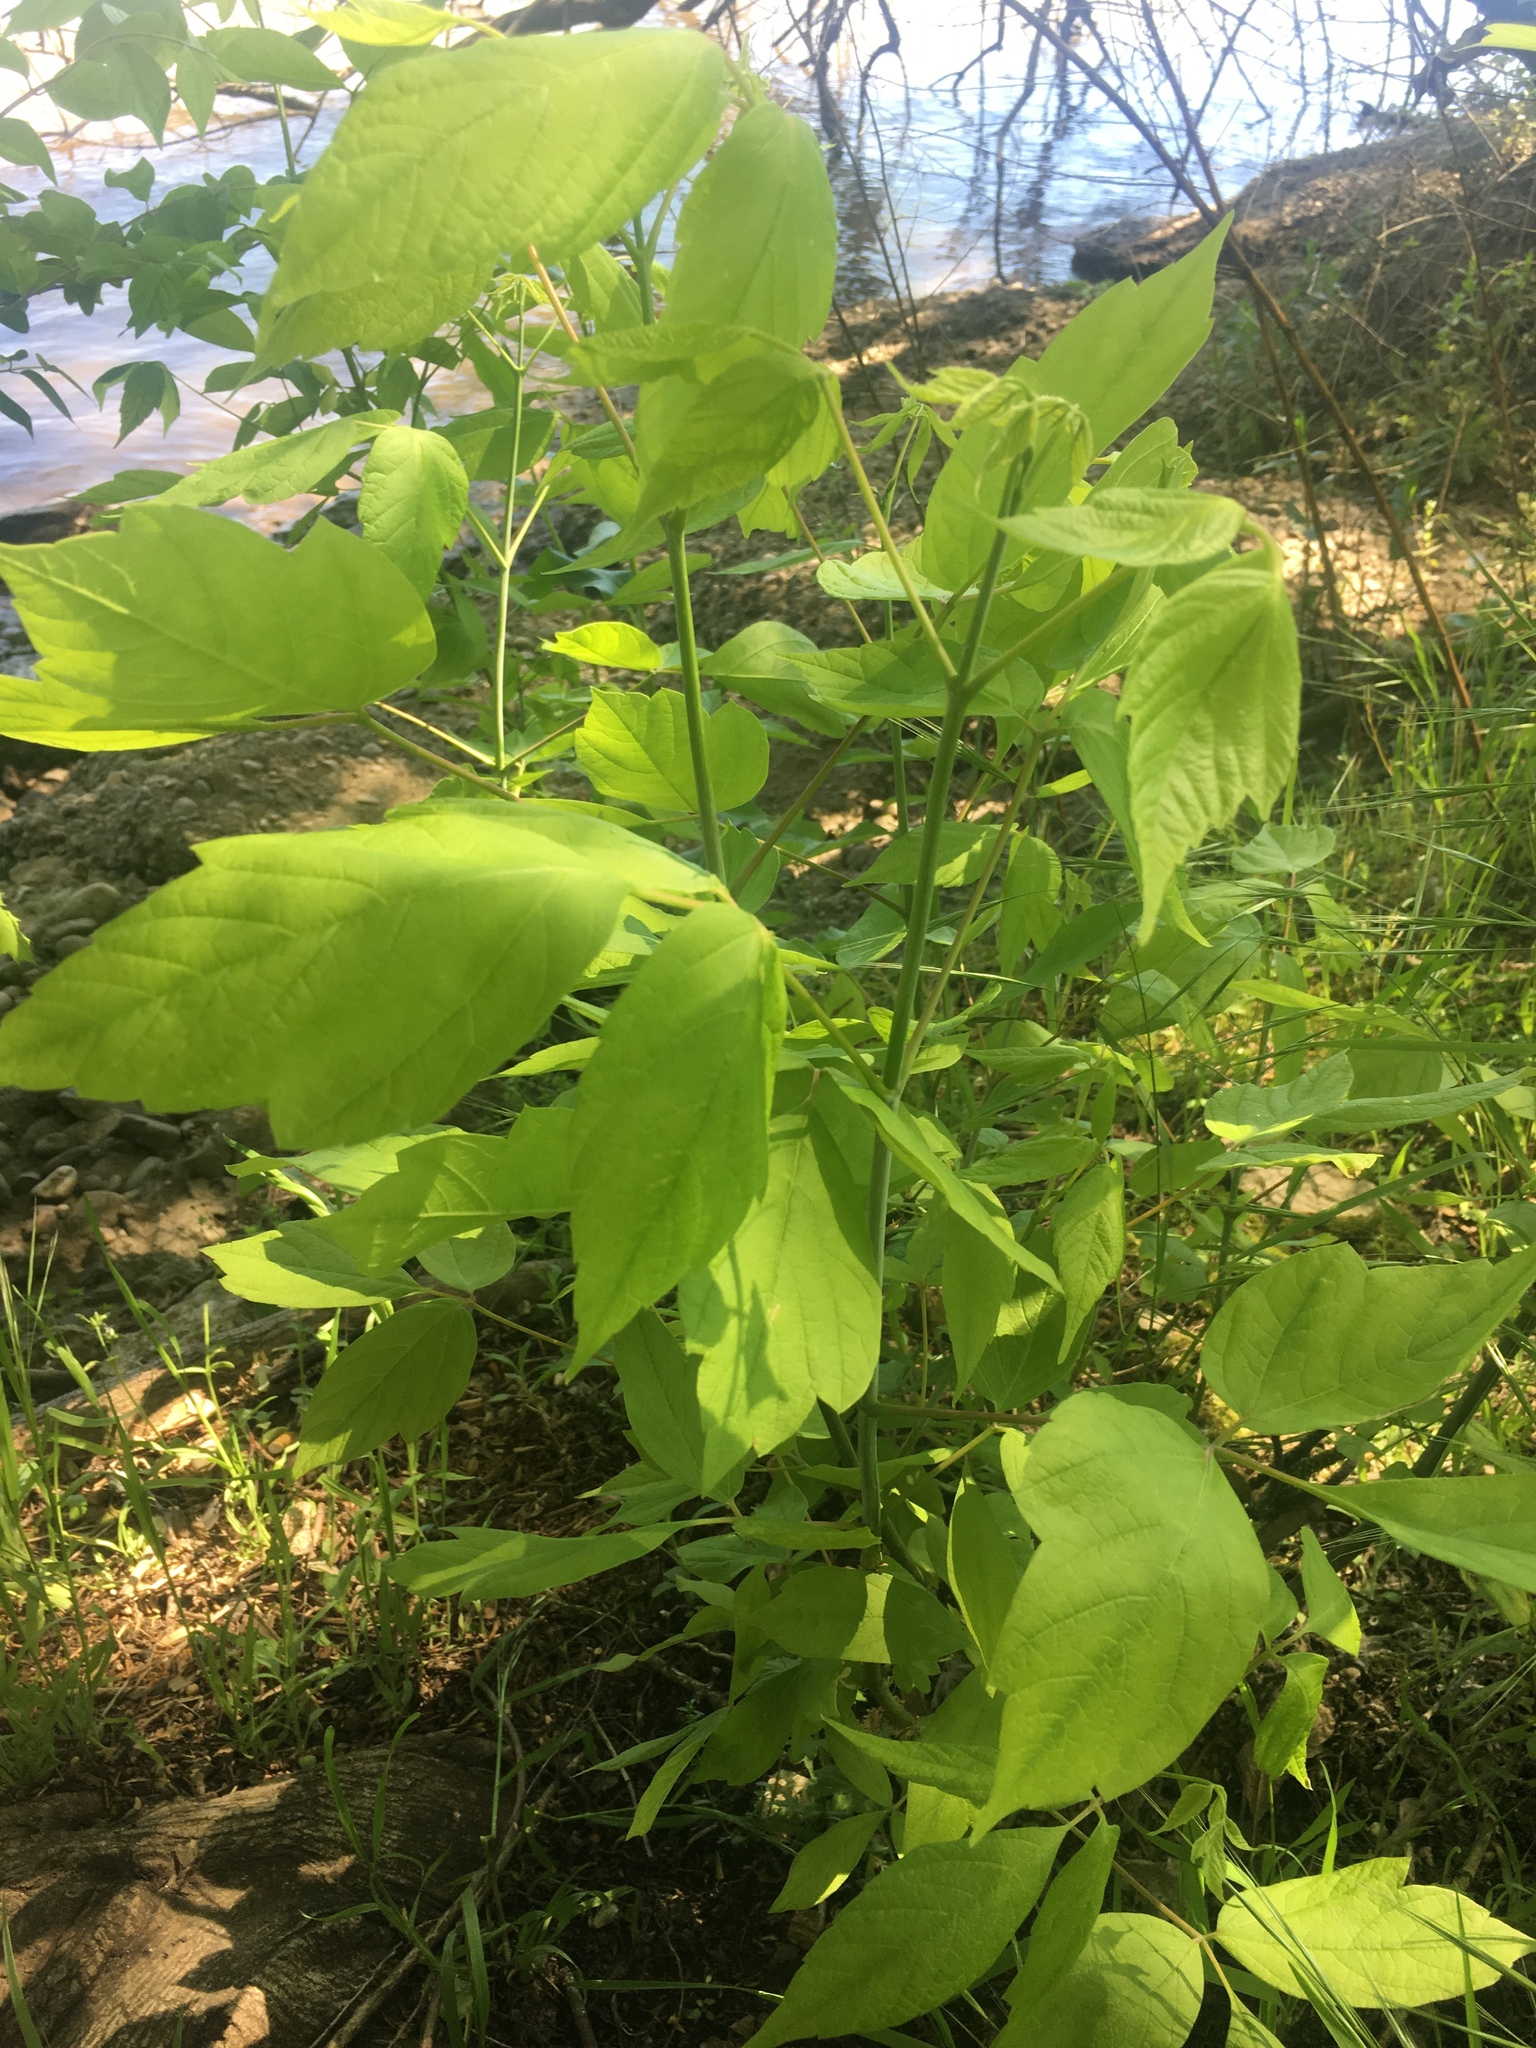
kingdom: Plantae
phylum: Tracheophyta
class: Magnoliopsida
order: Sapindales
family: Sapindaceae
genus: Acer
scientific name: Acer negundo
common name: Ashleaf maple
